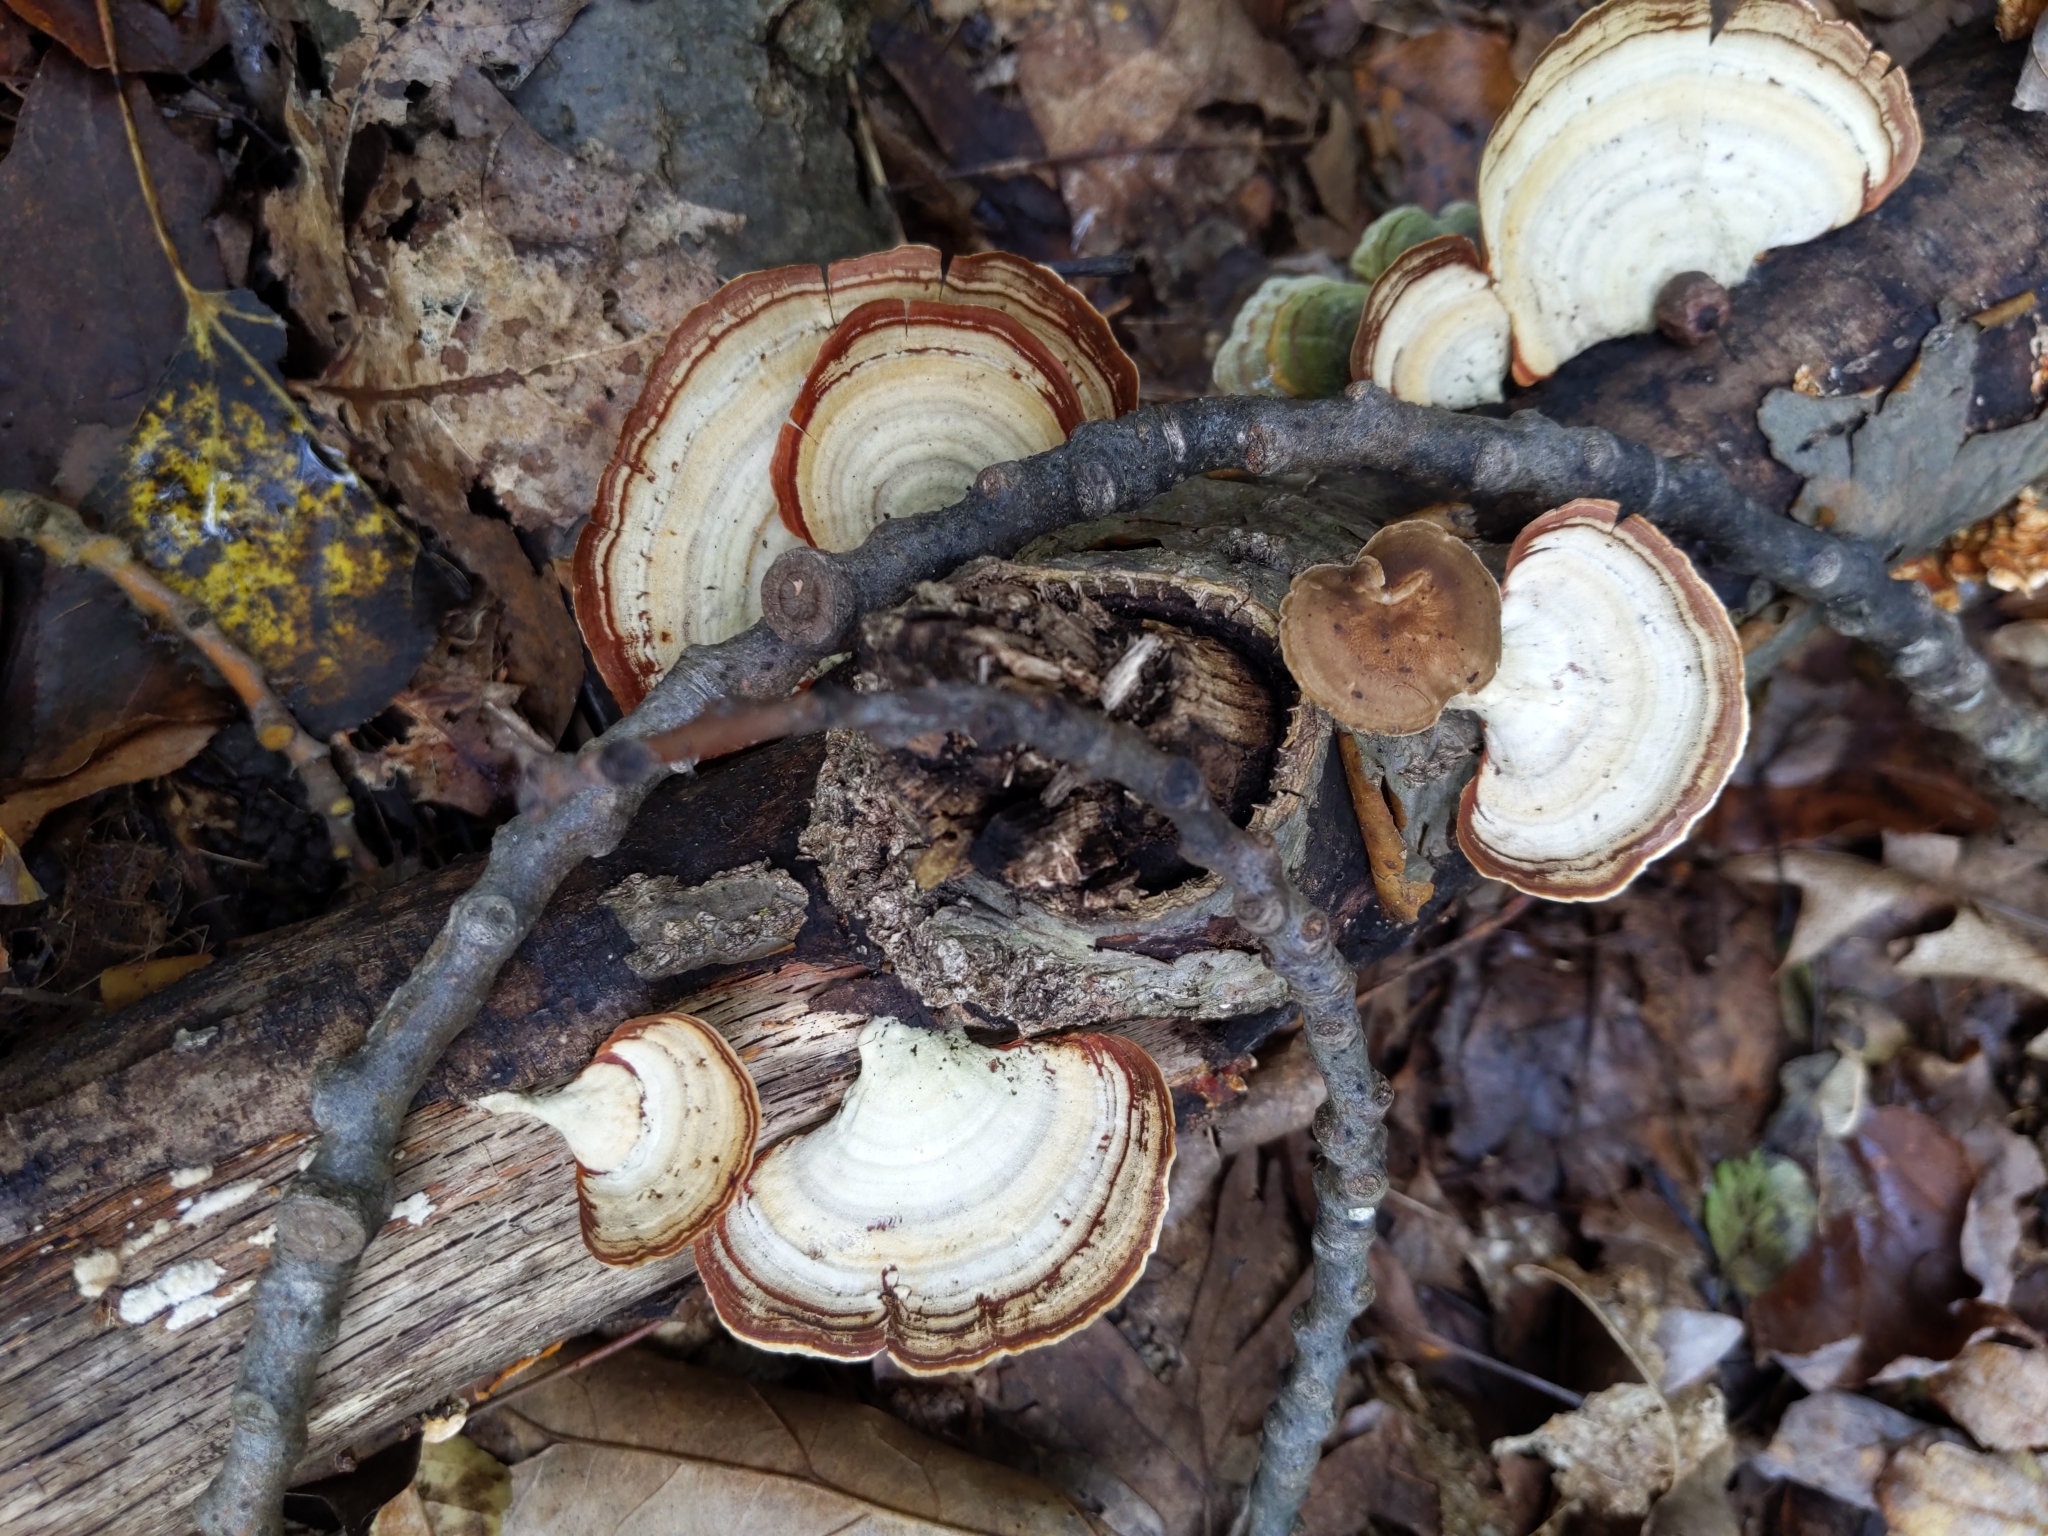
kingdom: Fungi
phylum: Basidiomycota
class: Agaricomycetes
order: Russulales
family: Stereaceae
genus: Stereum
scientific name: Stereum lobatum
